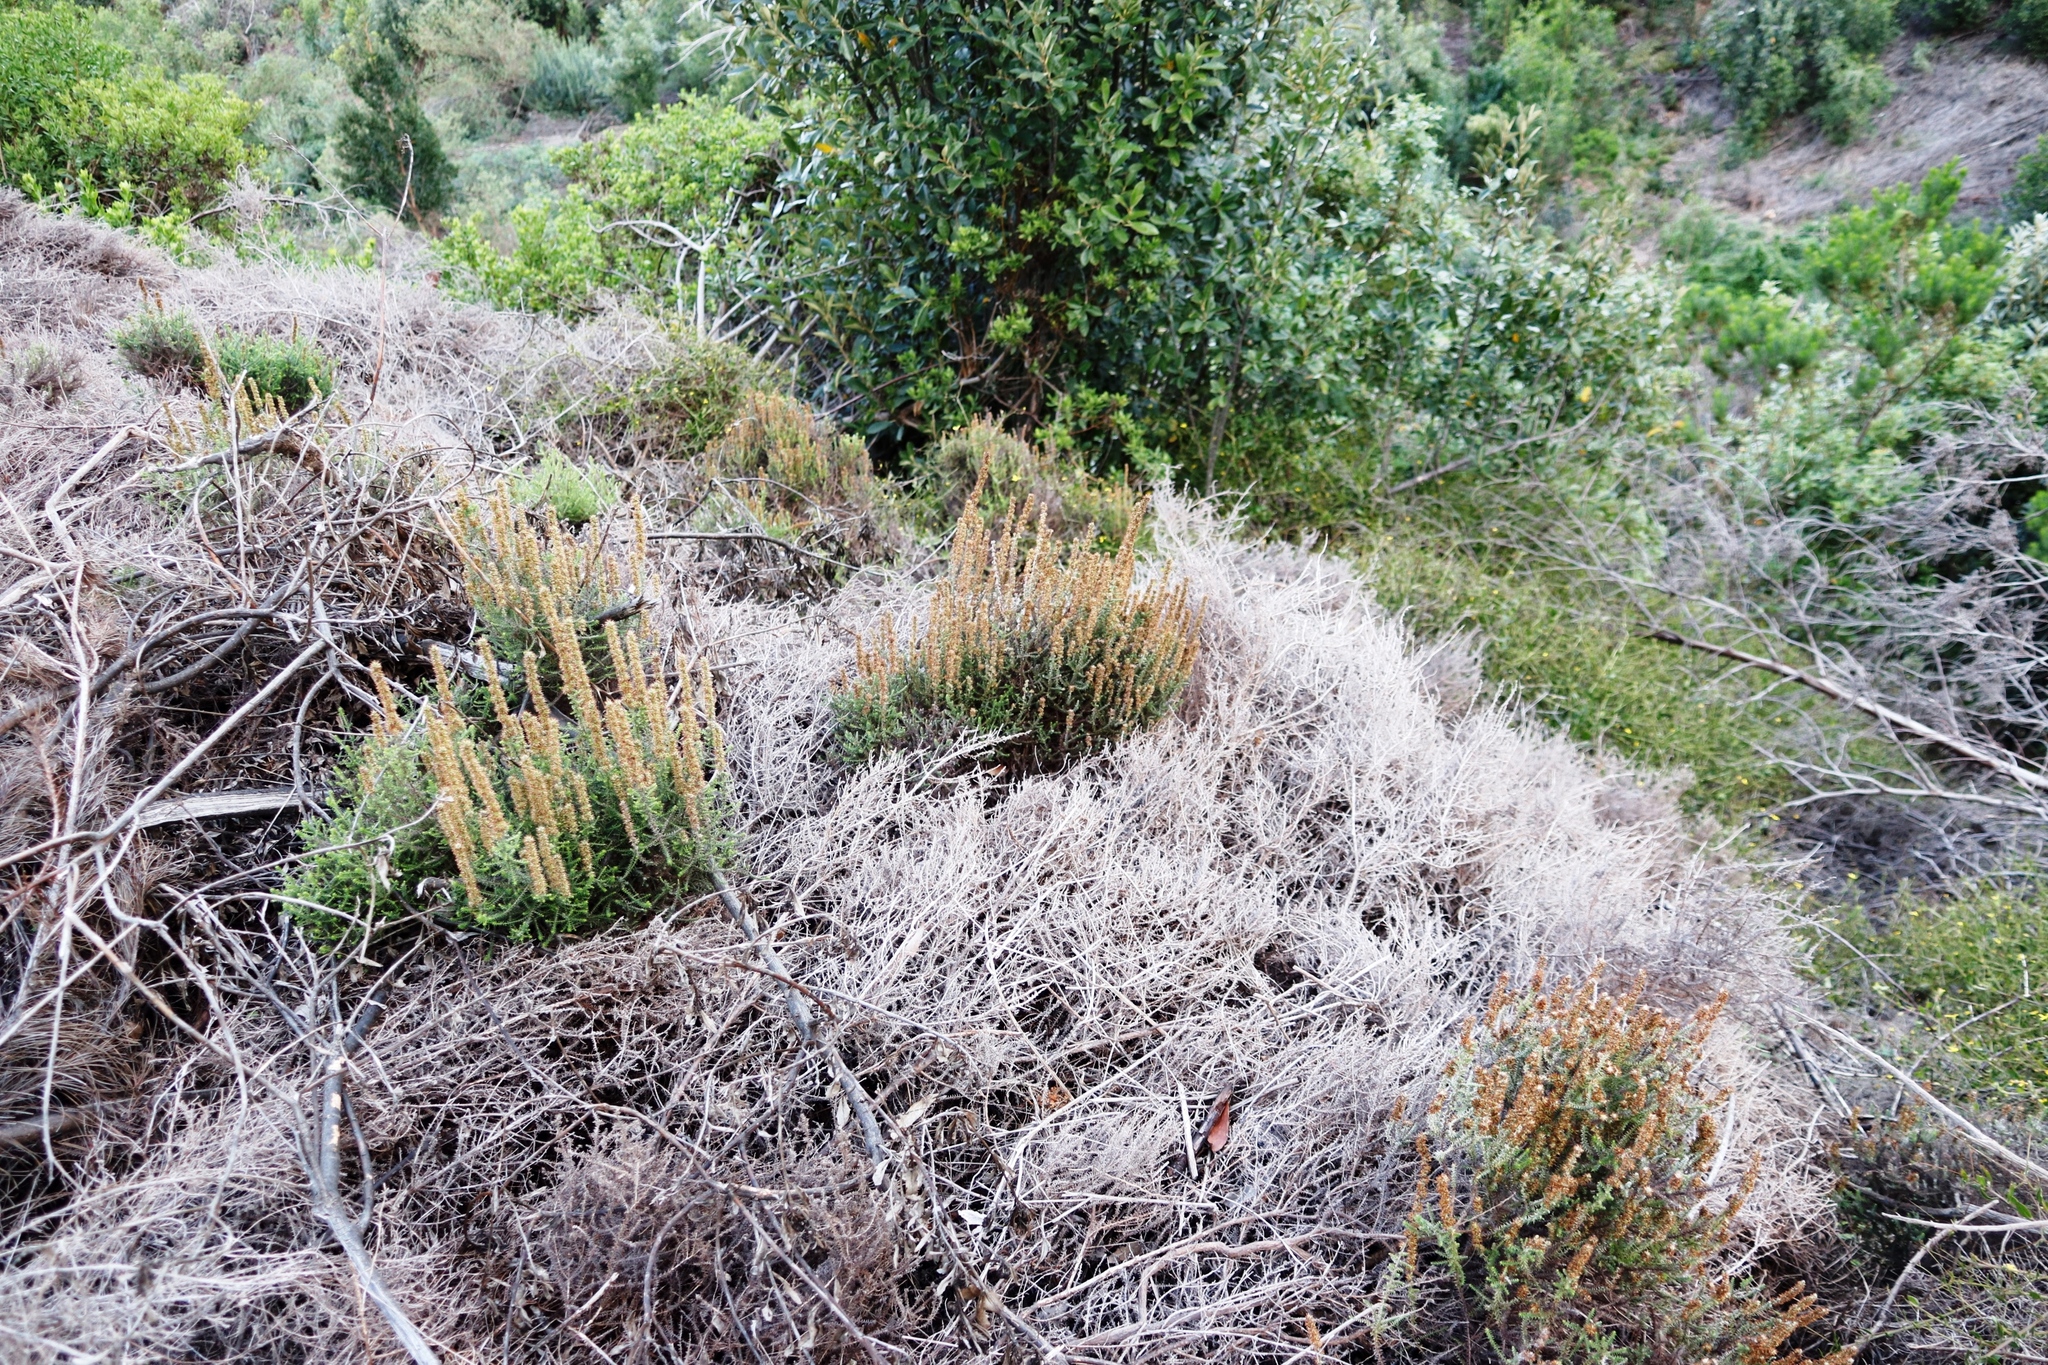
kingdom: Plantae
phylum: Tracheophyta
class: Magnoliopsida
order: Asterales
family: Asteraceae
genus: Seriphium
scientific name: Seriphium cinereum
